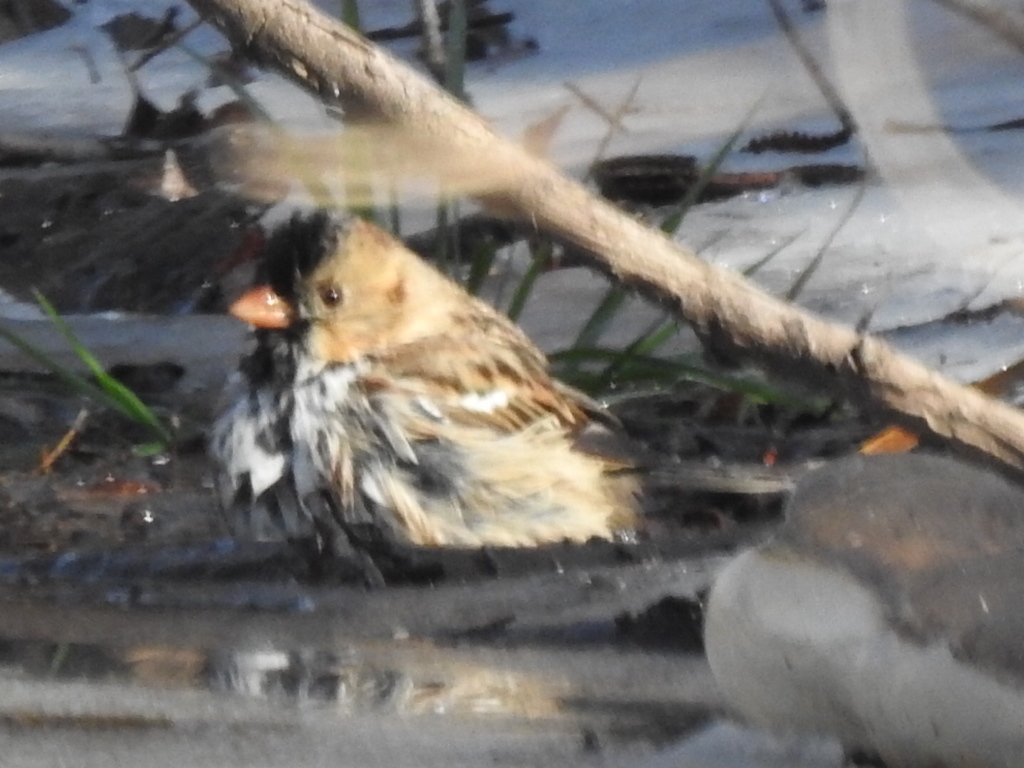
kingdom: Animalia
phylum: Chordata
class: Aves
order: Passeriformes
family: Passerellidae
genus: Zonotrichia
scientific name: Zonotrichia querula
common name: Harris's sparrow
